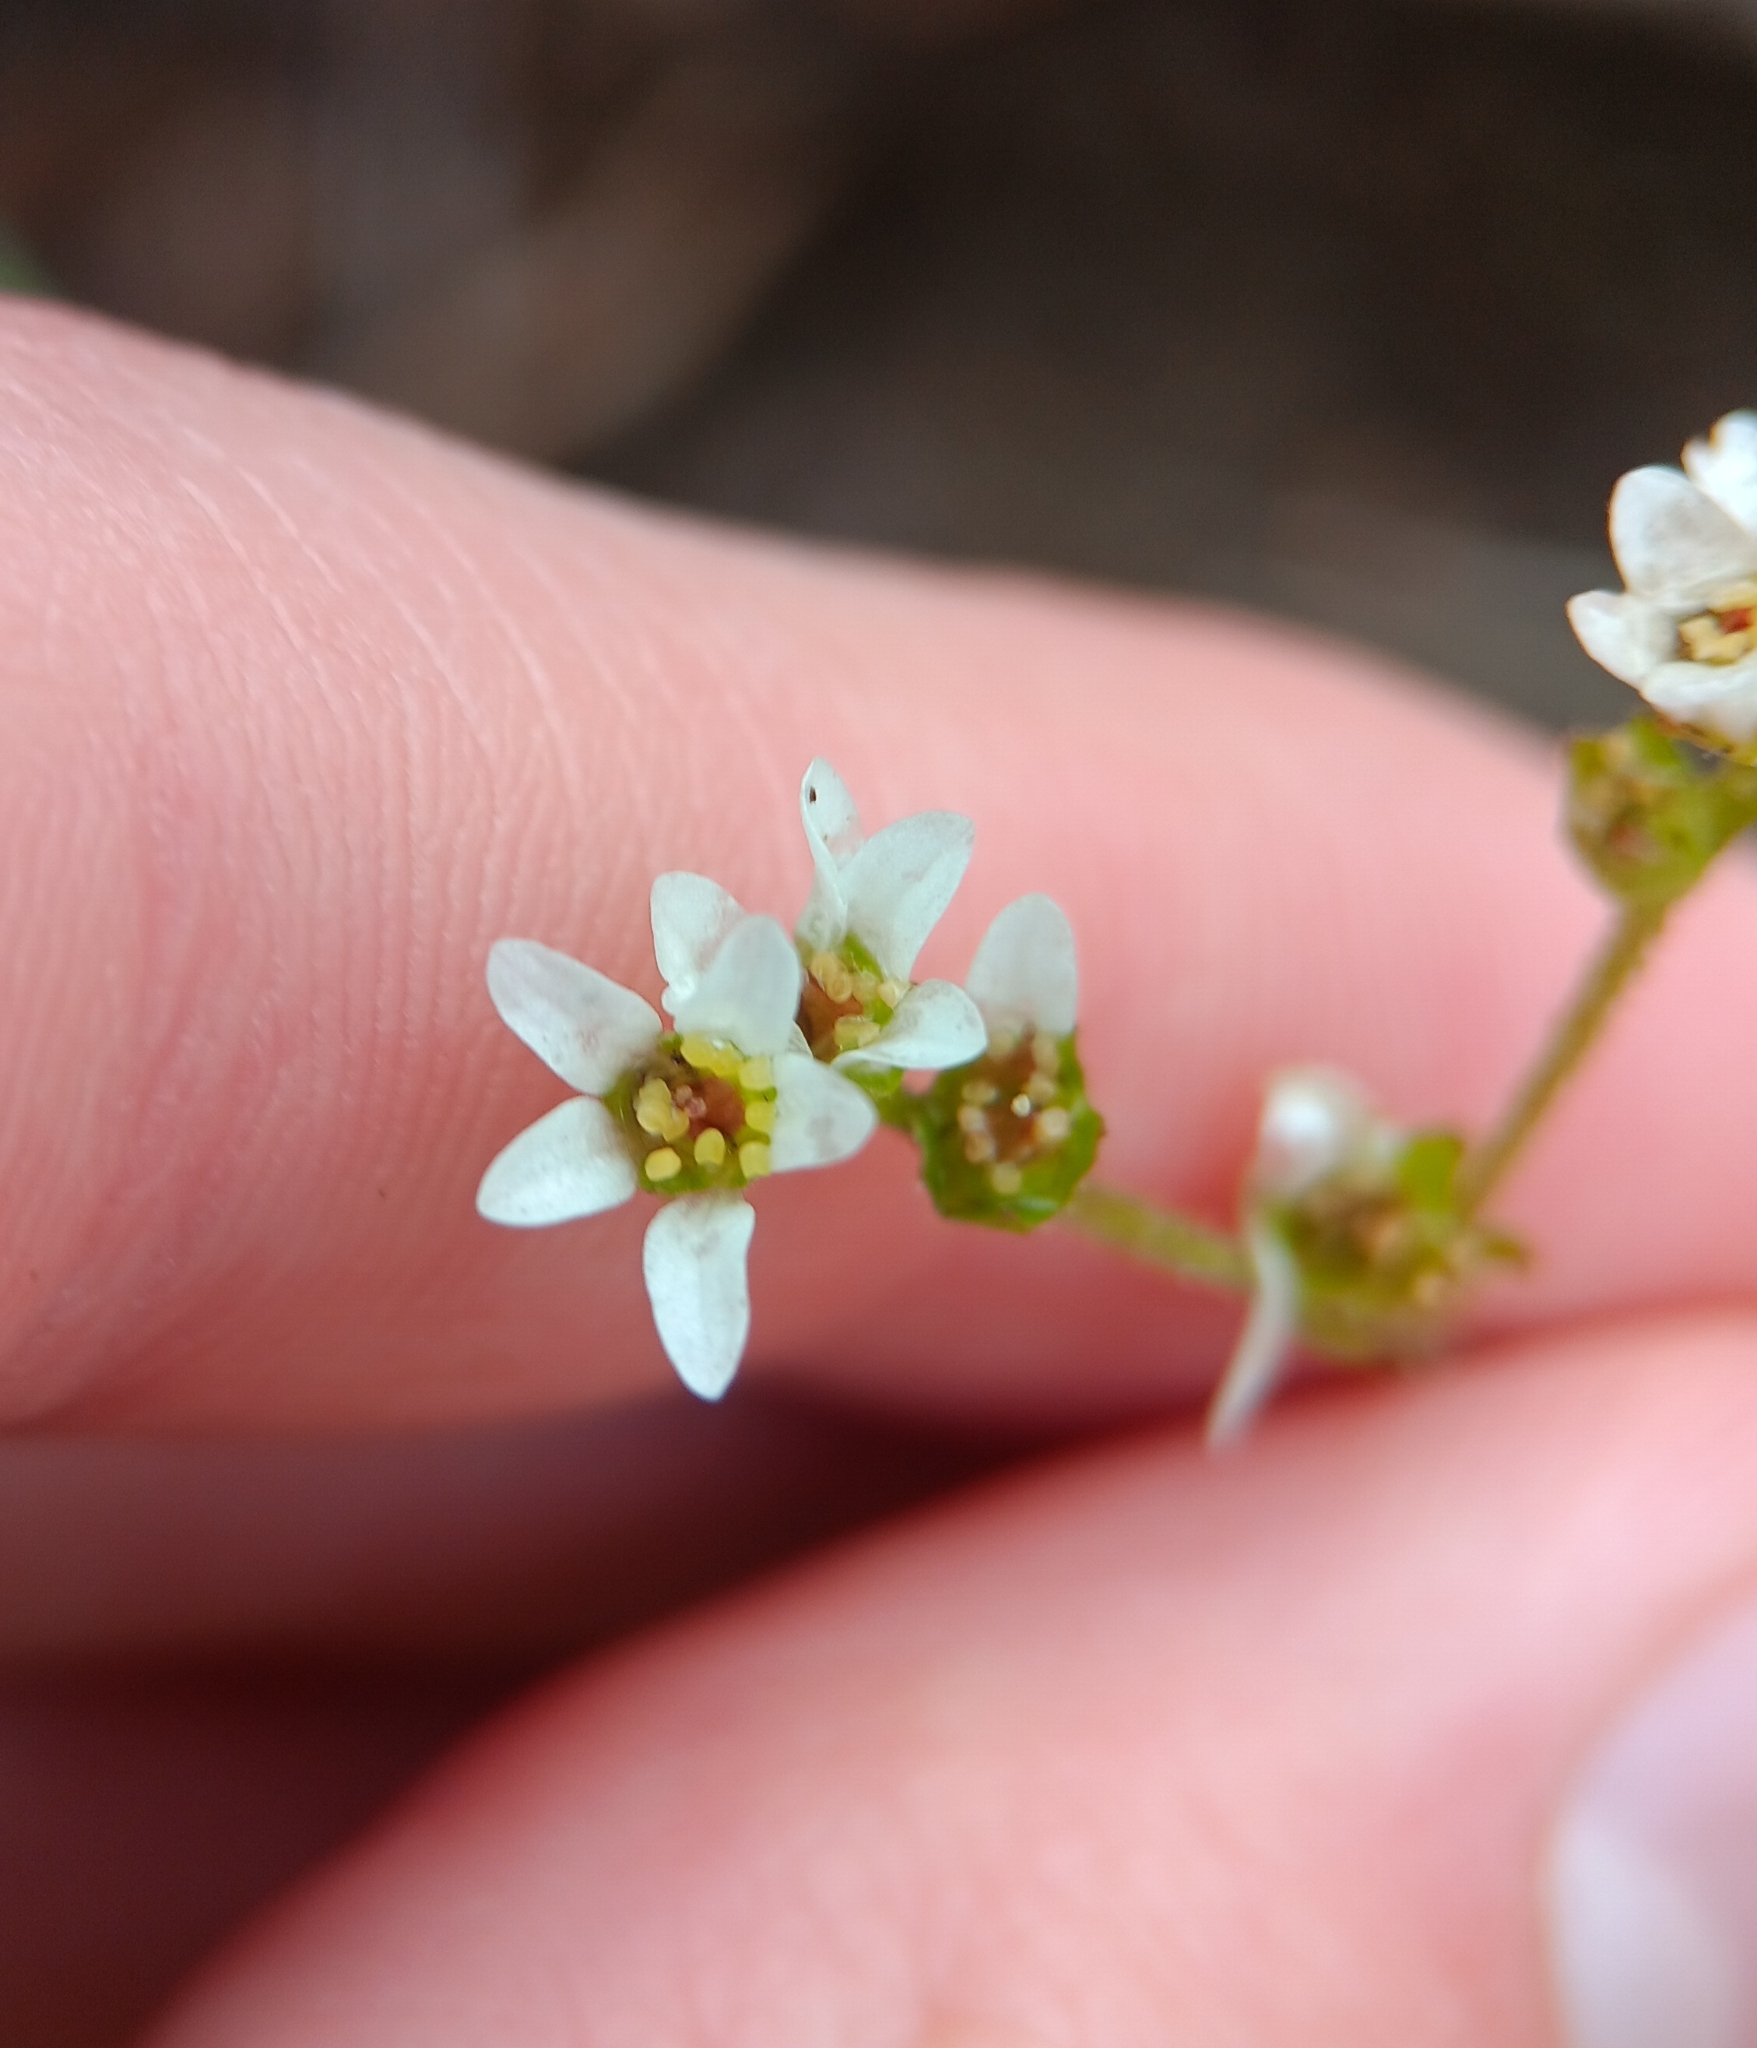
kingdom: Plantae
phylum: Tracheophyta
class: Magnoliopsida
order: Saxifragales
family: Saxifragaceae
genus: Micranthes
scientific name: Micranthes virginiensis
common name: Early saxifrage
